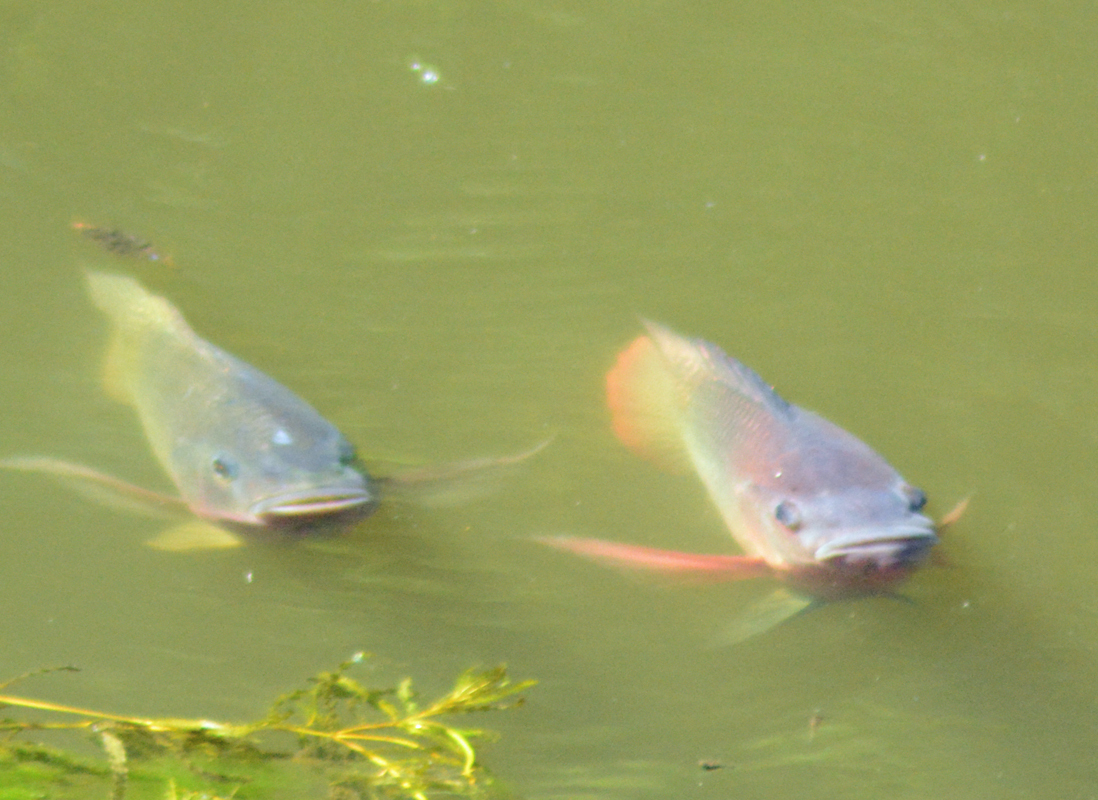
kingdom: Animalia
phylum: Chordata
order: Perciformes
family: Cichlidae
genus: Oreochromis
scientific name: Oreochromis niloticus
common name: Nile tilapia
